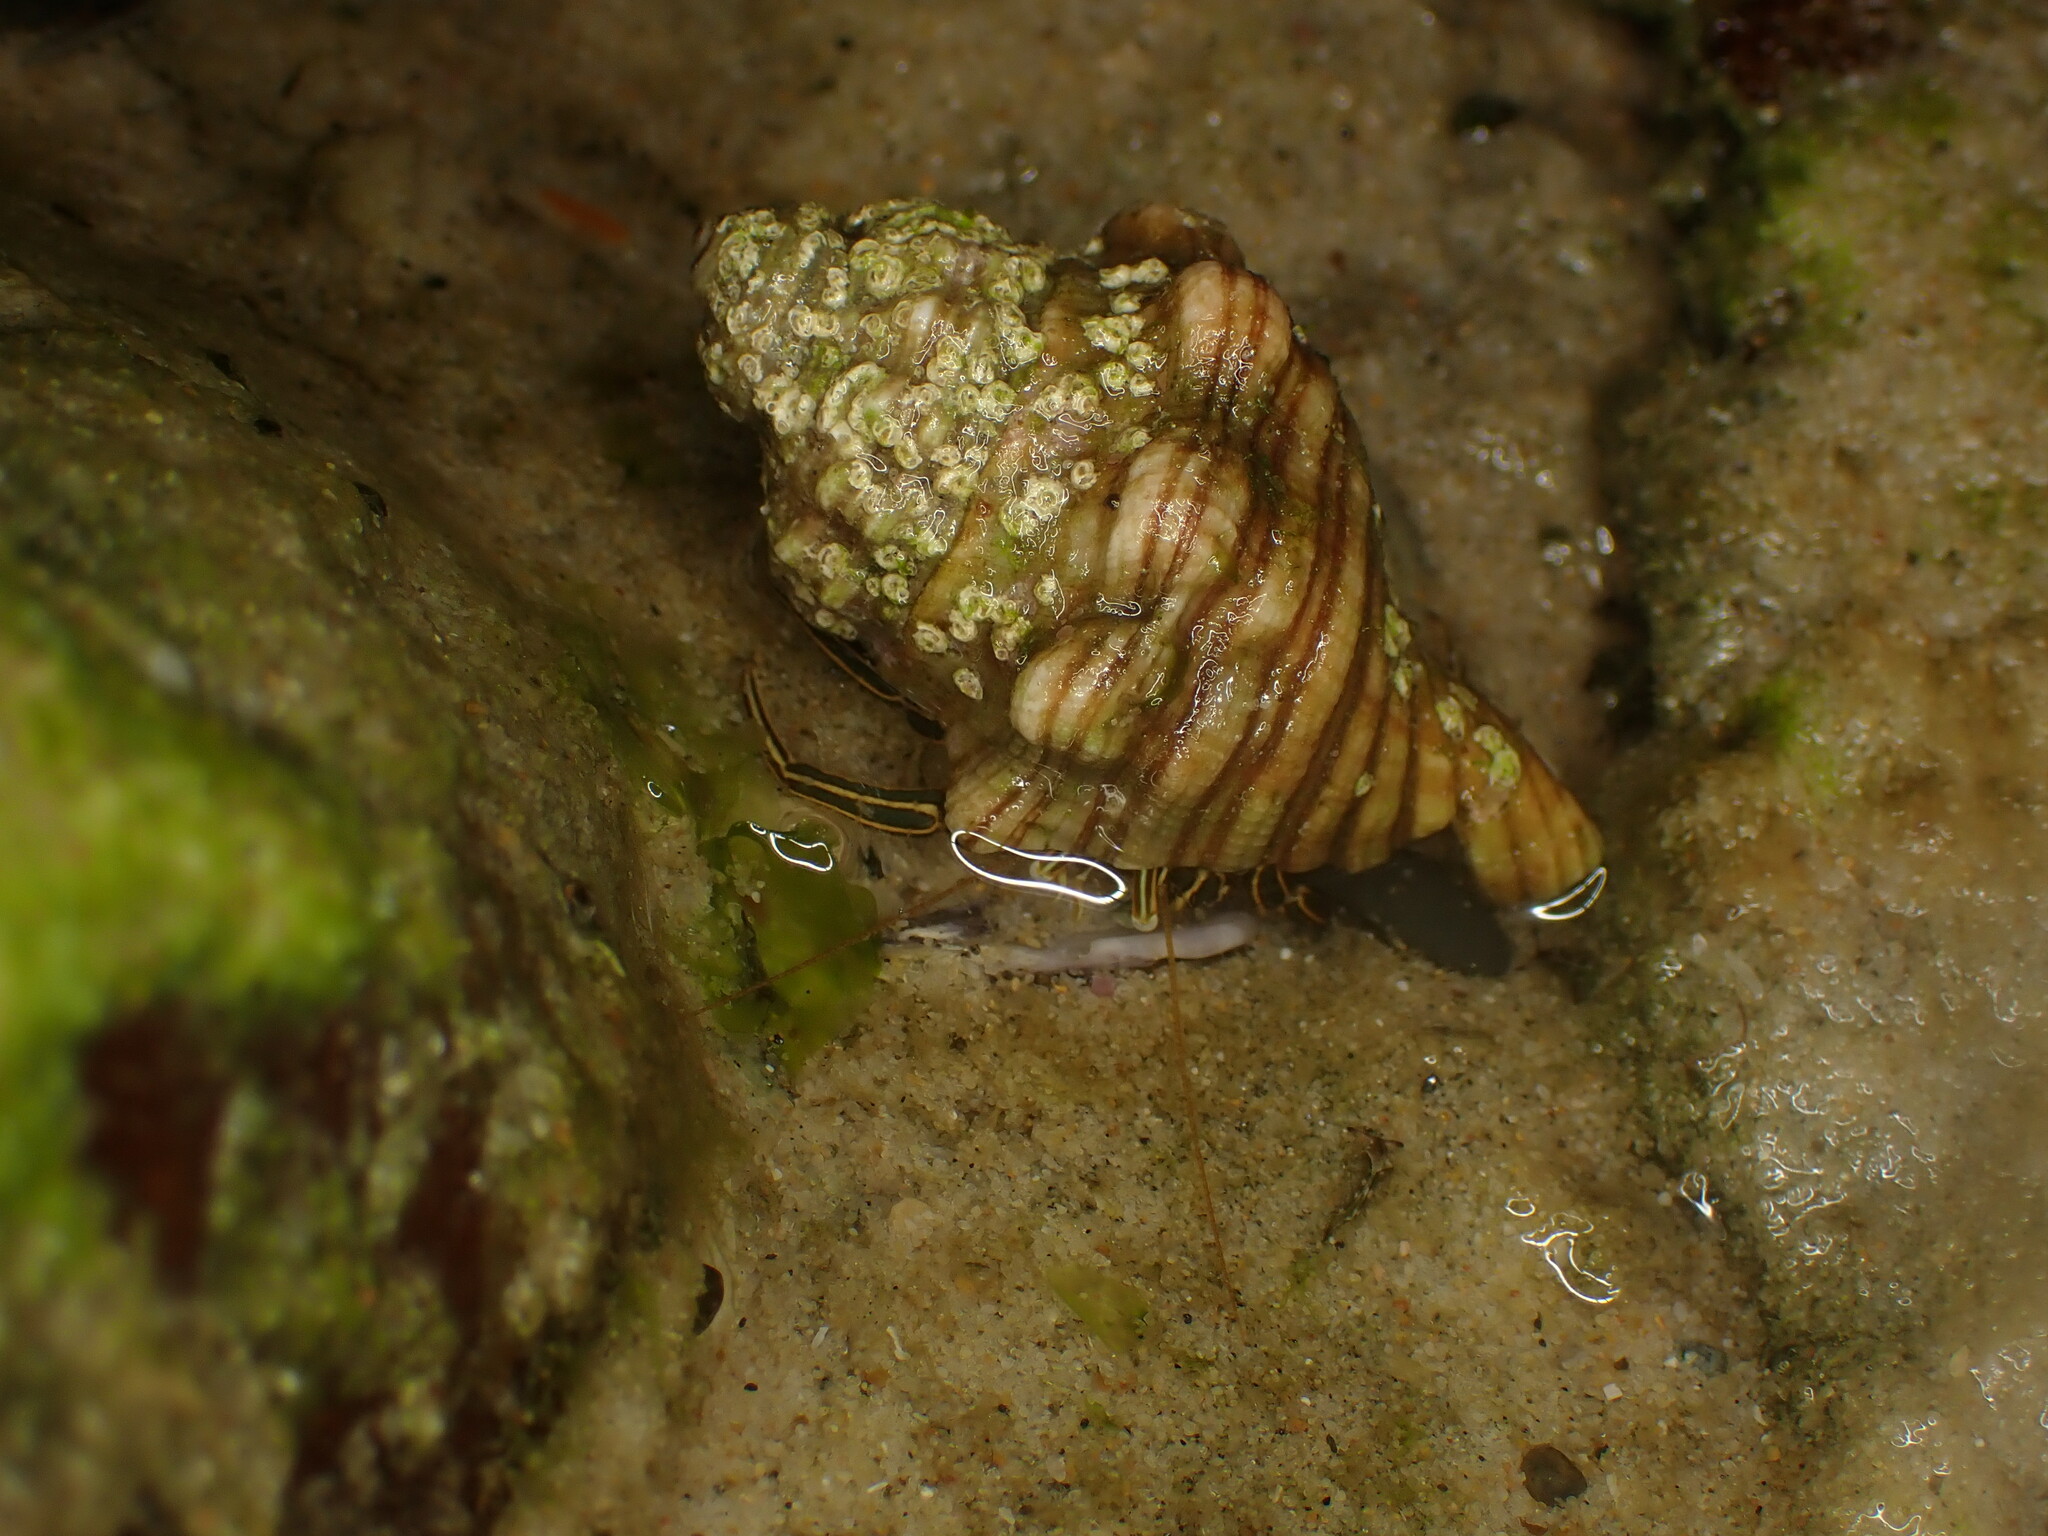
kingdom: Animalia
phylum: Arthropoda
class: Malacostraca
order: Decapoda
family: Diogenidae
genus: Clibanarius
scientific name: Clibanarius taeniatus
